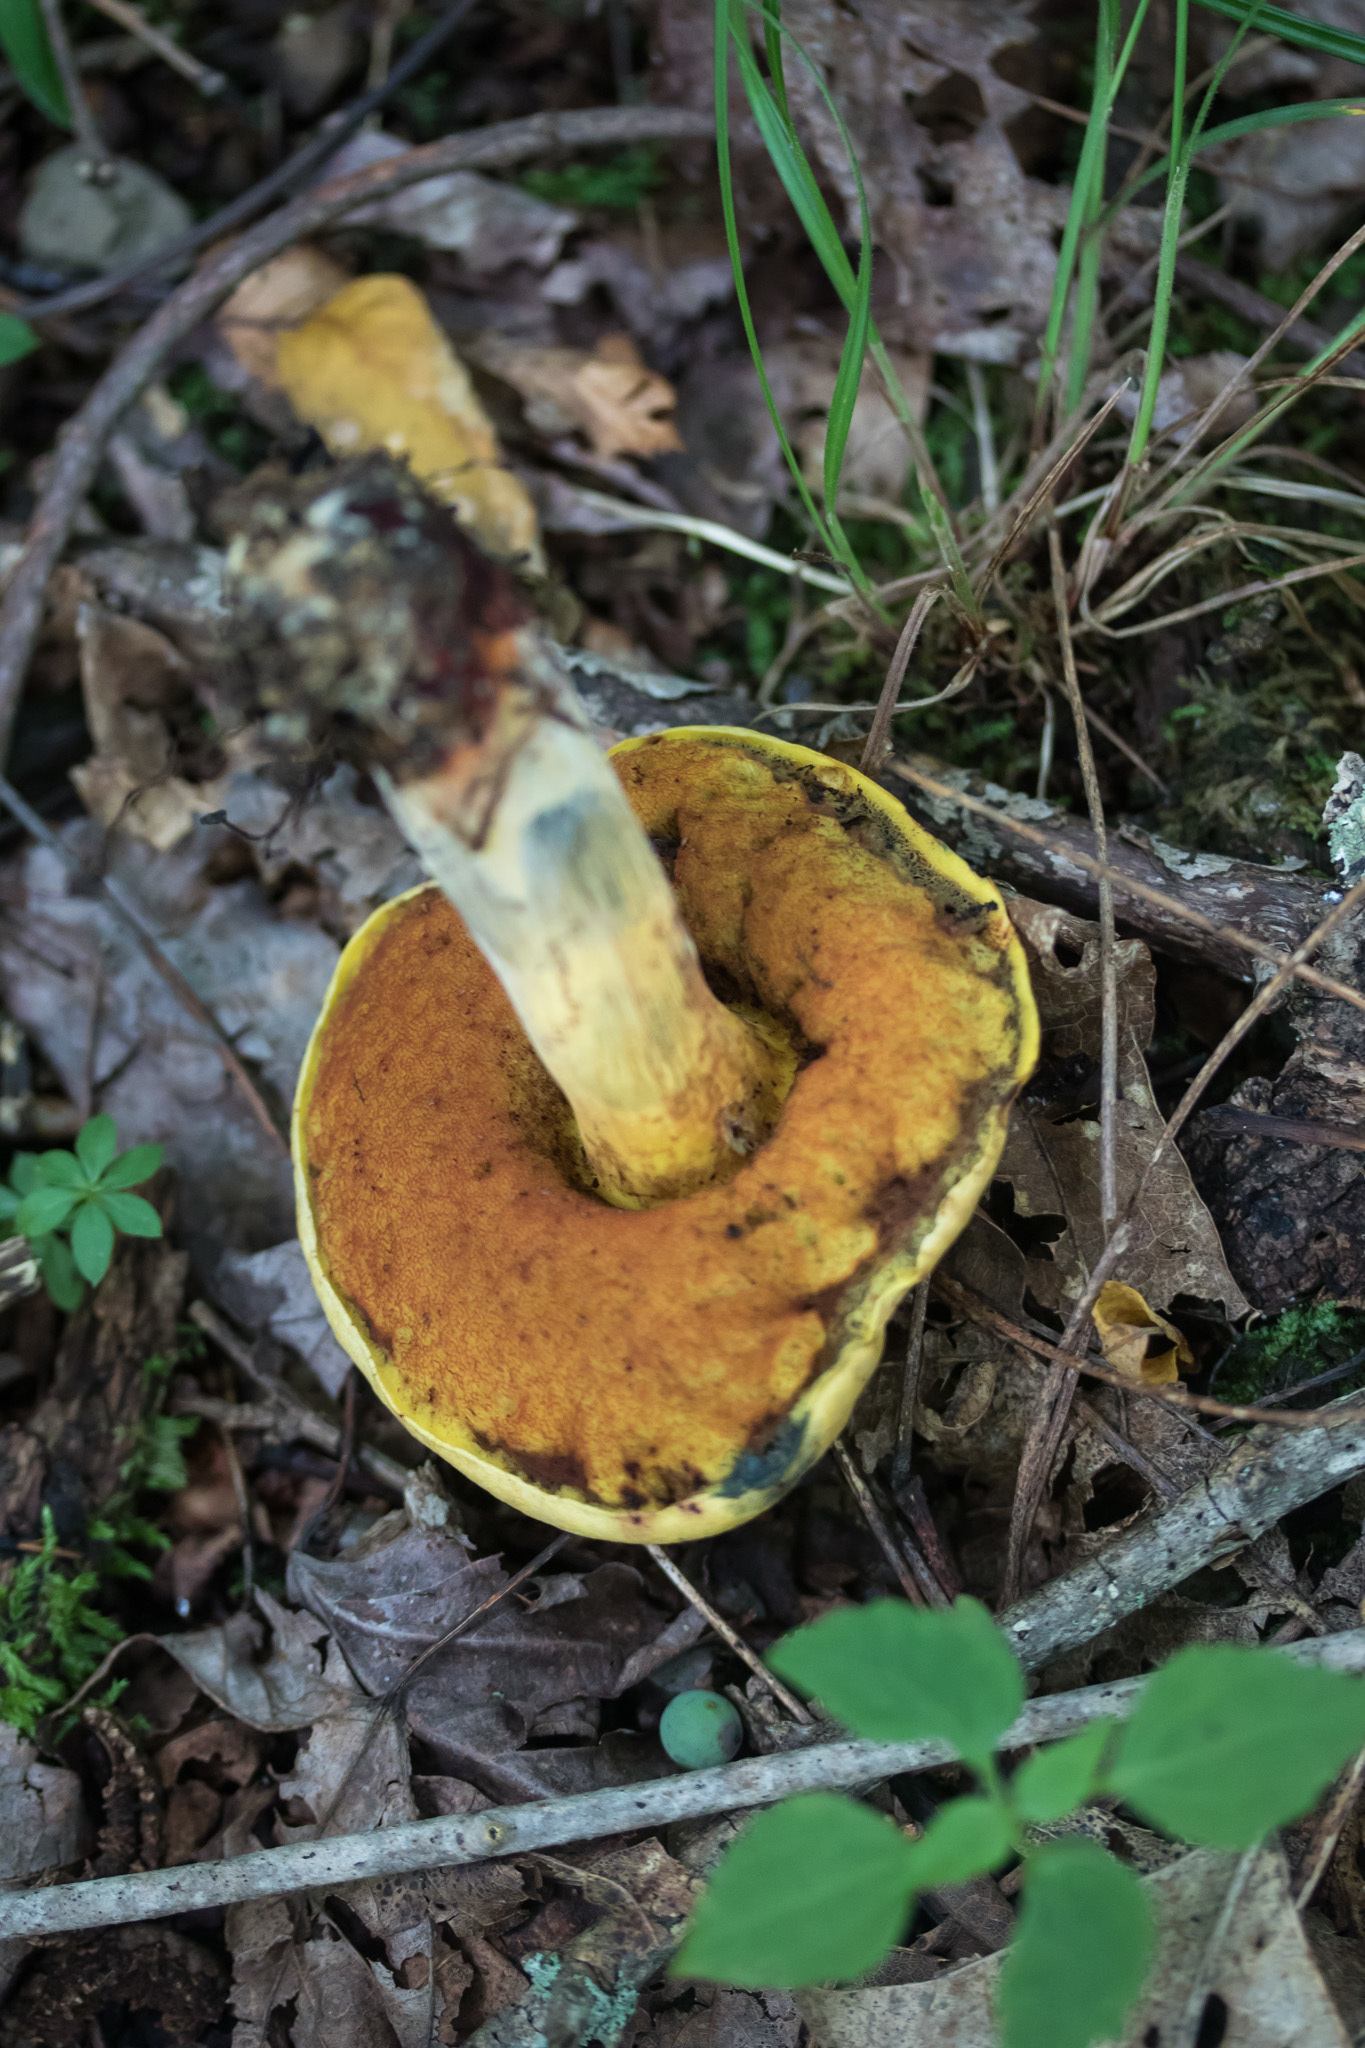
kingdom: Fungi
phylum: Basidiomycota
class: Agaricomycetes
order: Boletales
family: Boletaceae
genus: Boletus
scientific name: Boletus subvelutipes
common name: Red-mouth bolete
